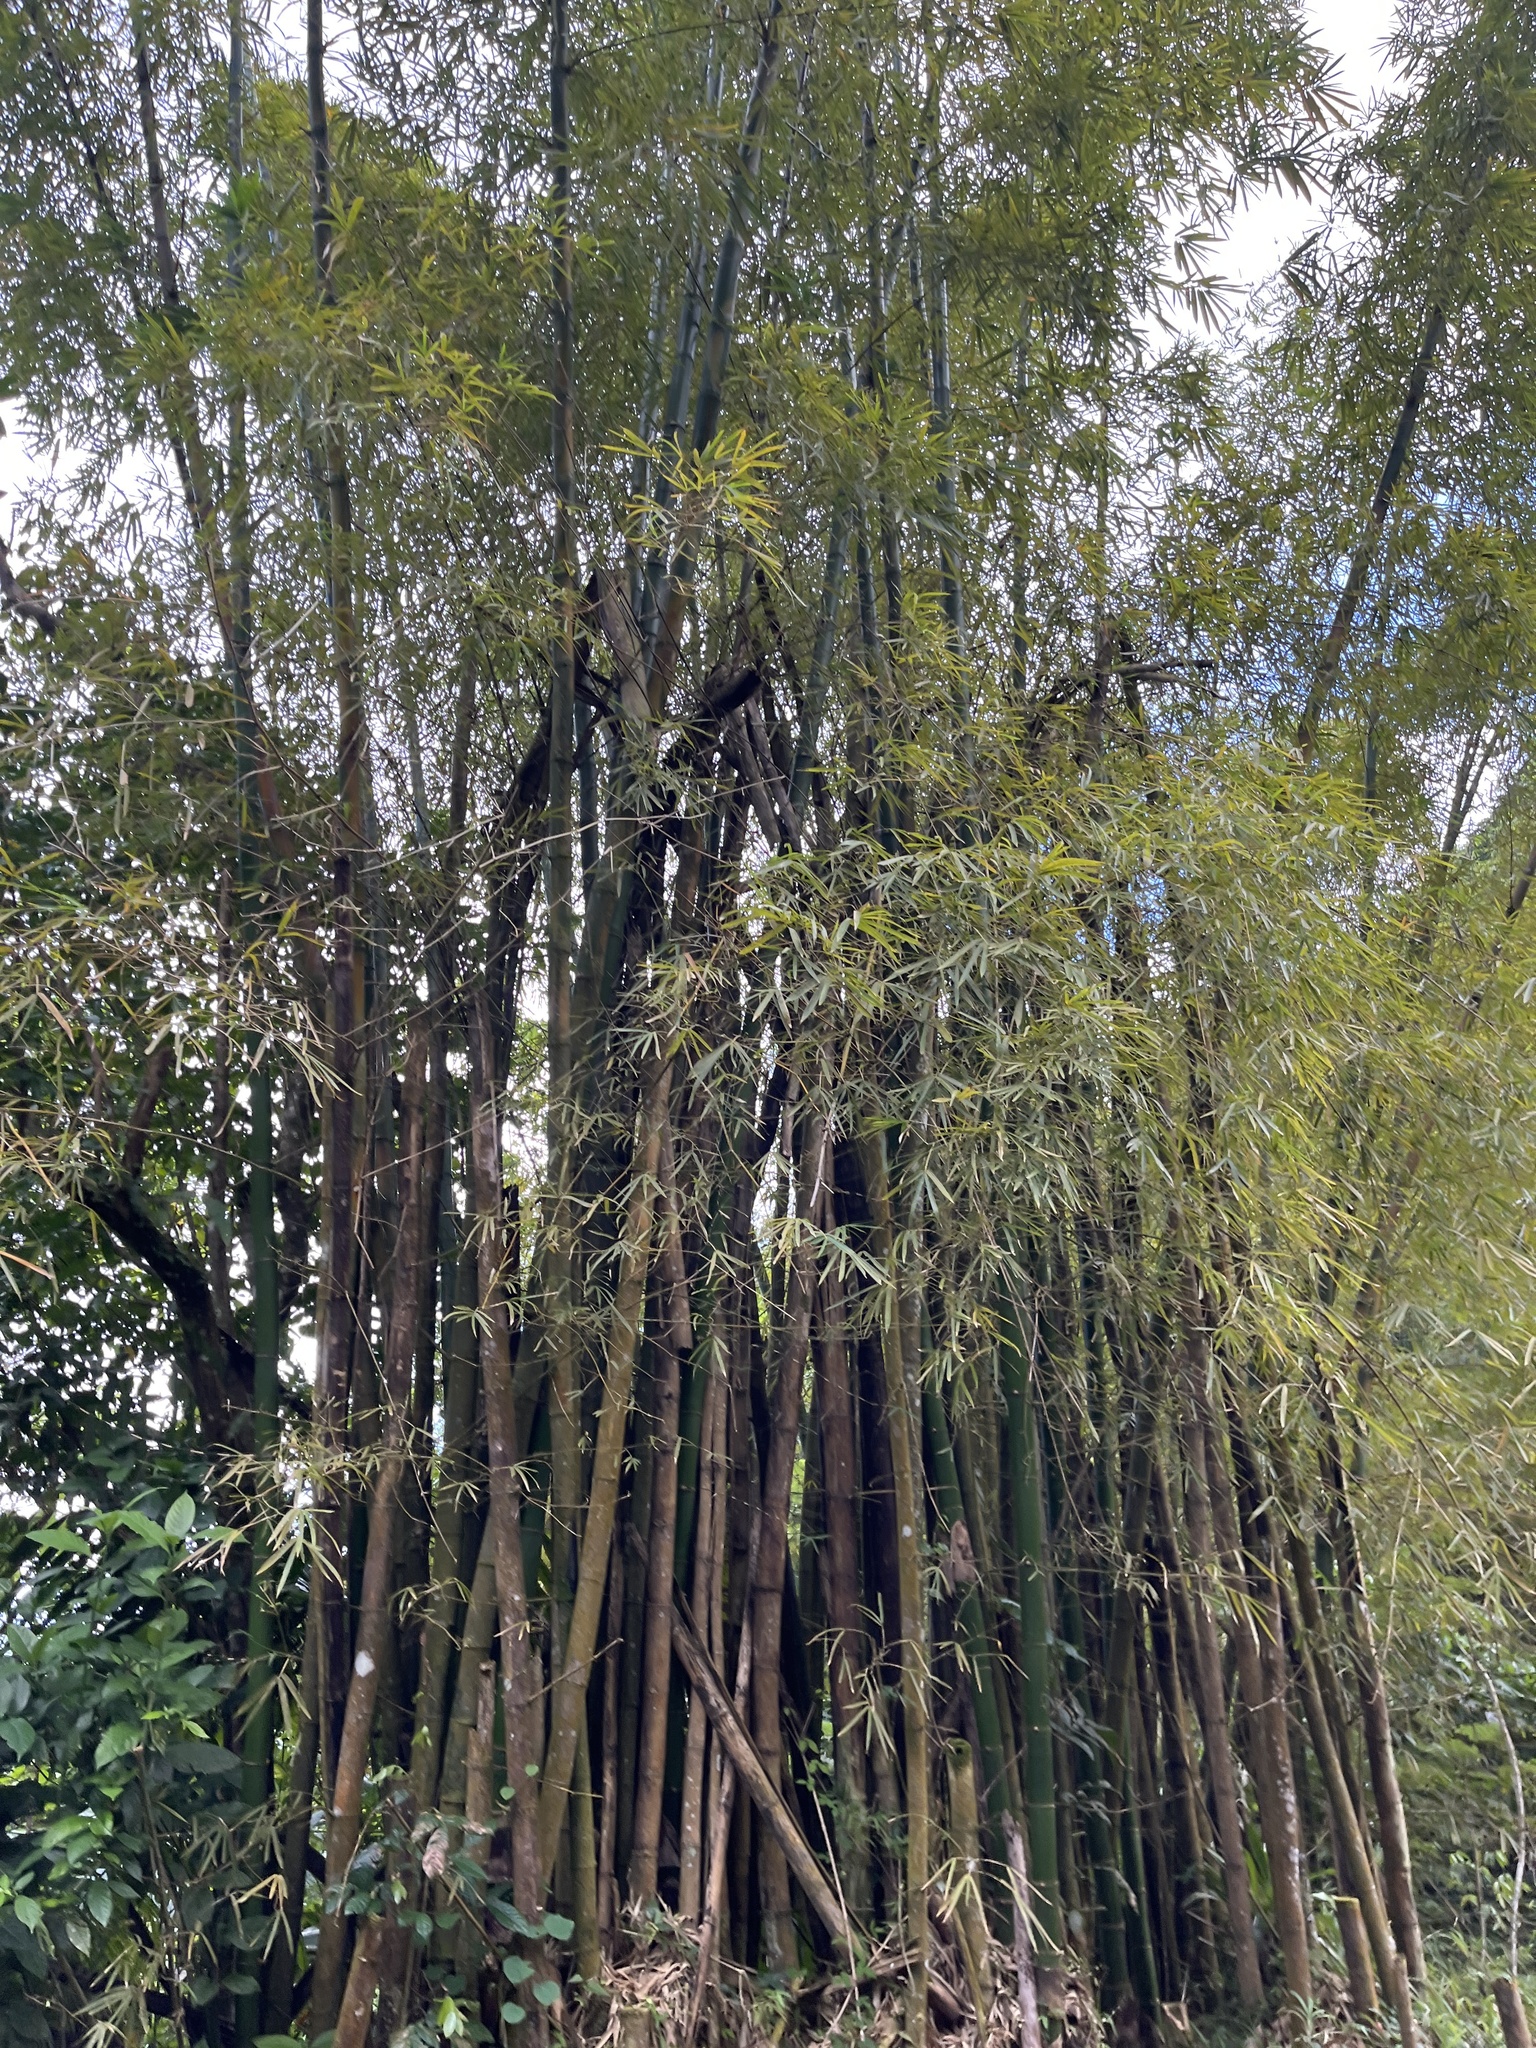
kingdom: Plantae
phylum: Tracheophyta
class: Liliopsida
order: Poales
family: Poaceae
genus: Bambusa
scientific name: Bambusa vulgaris
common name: Common bamboo
